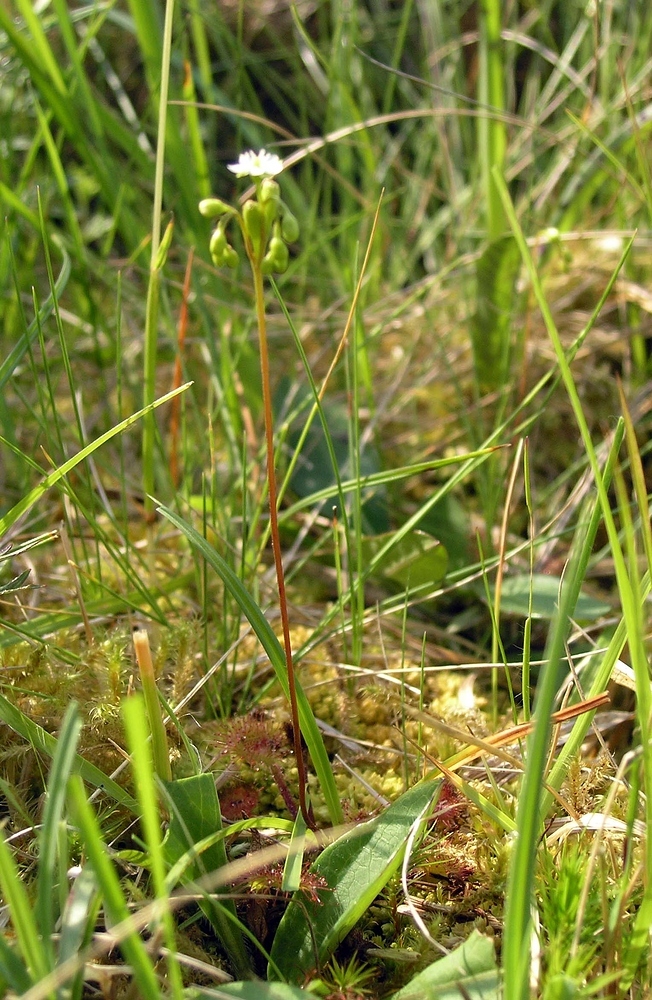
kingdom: Plantae
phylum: Tracheophyta
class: Magnoliopsida
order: Caryophyllales
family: Droseraceae
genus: Drosera
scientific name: Drosera rotundifolia
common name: Round-leaved sundew
